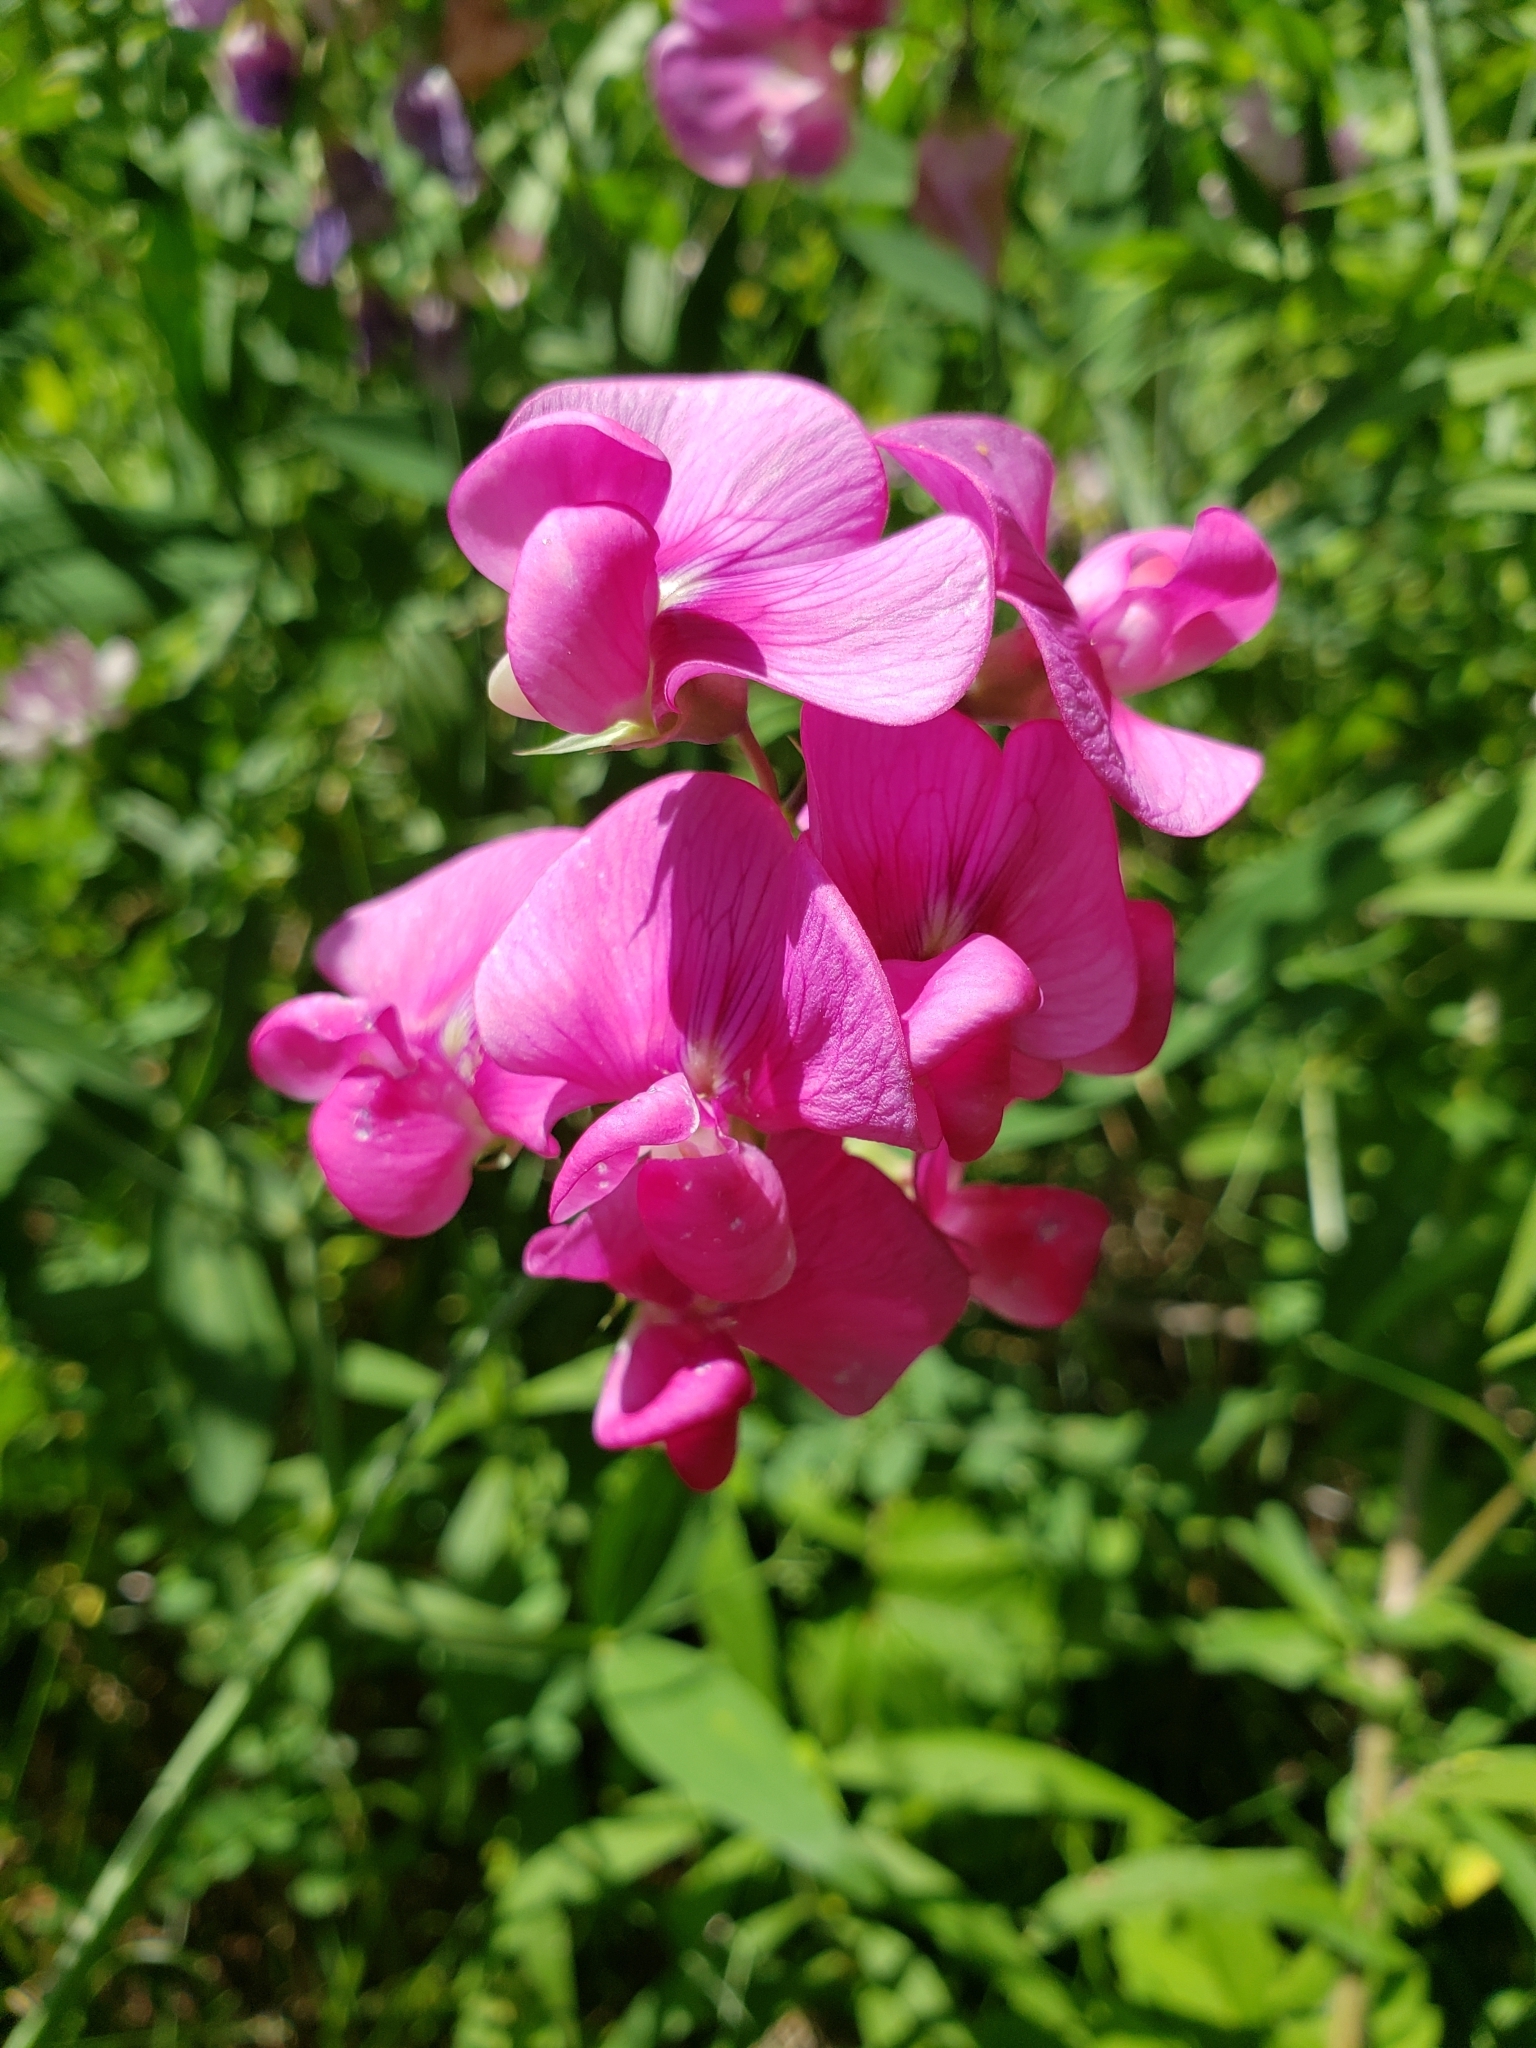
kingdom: Plantae
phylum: Tracheophyta
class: Magnoliopsida
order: Fabales
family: Fabaceae
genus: Lathyrus
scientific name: Lathyrus latifolius
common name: Perennial pea
